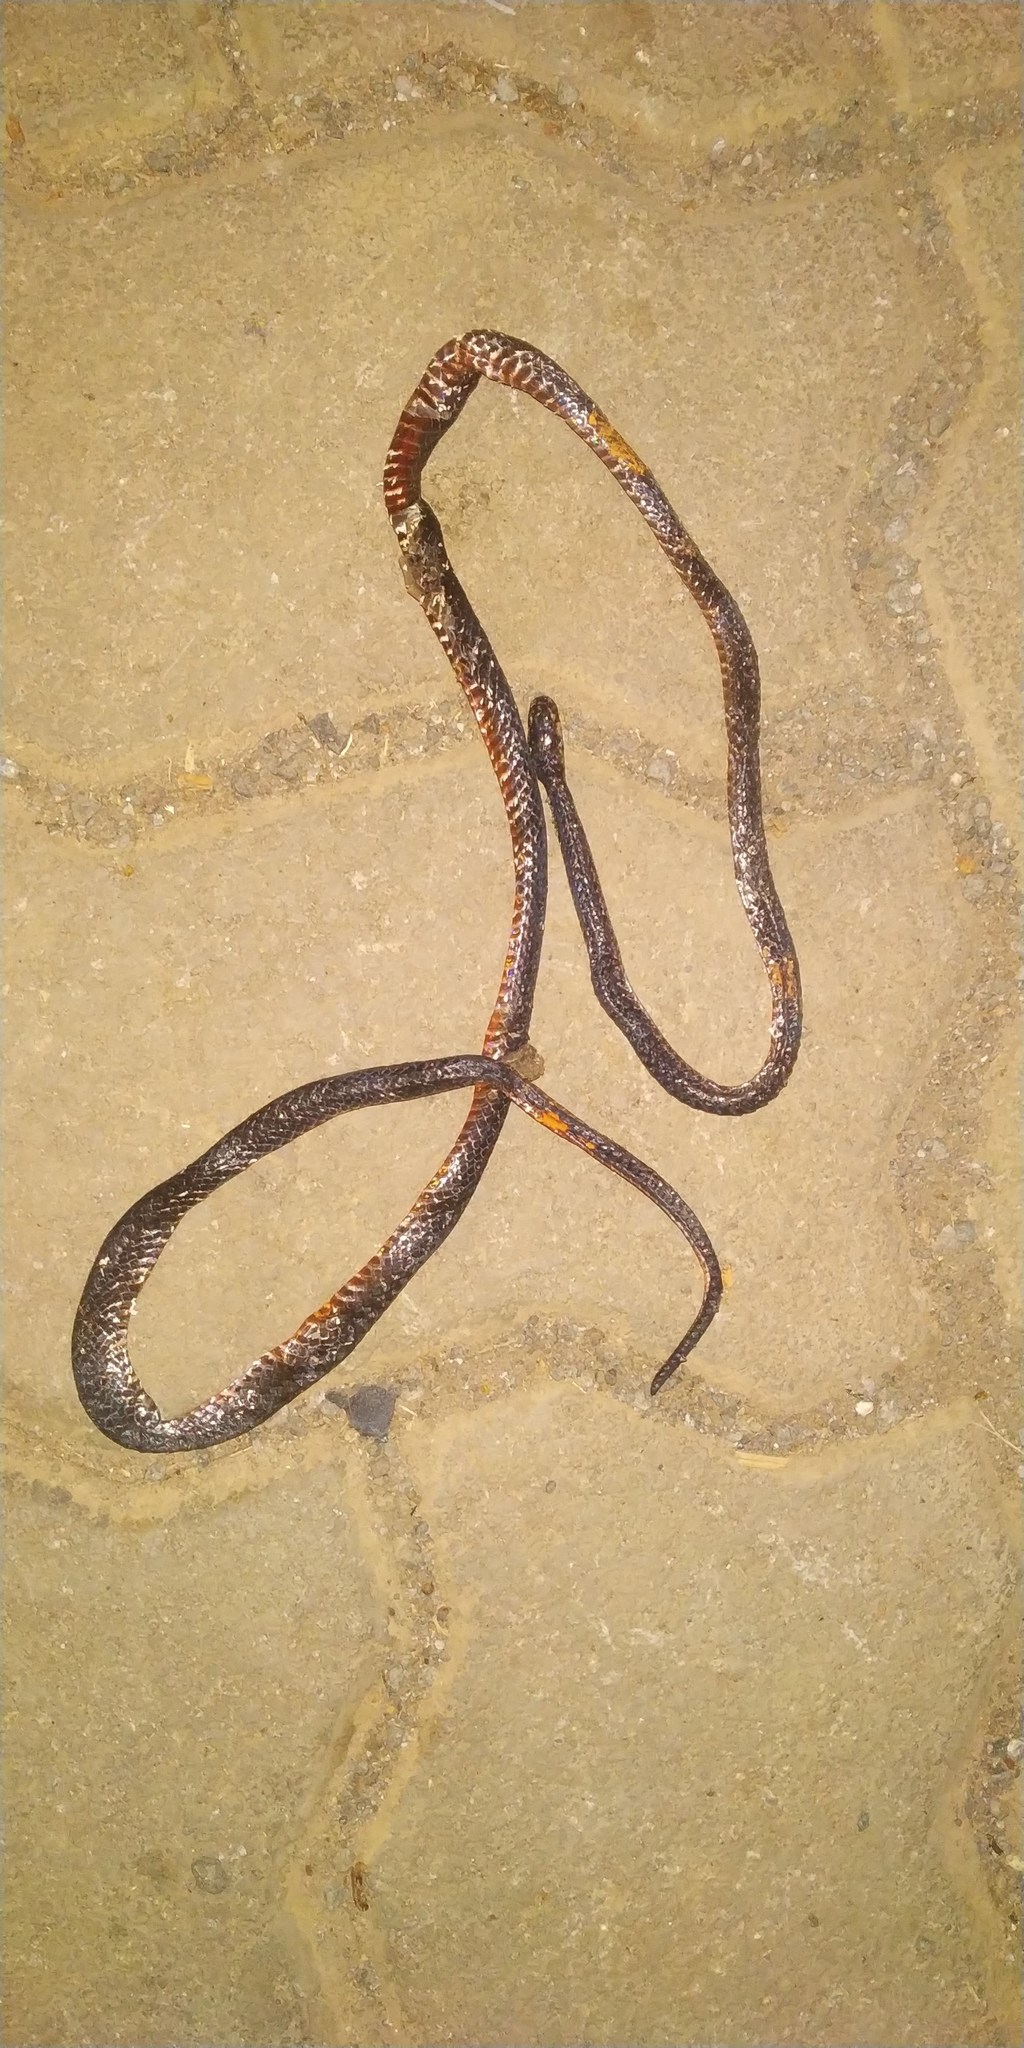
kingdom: Animalia
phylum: Chordata
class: Squamata
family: Elapidae
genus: Calliophis
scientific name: Calliophis nigrescens
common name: Black coral snake
